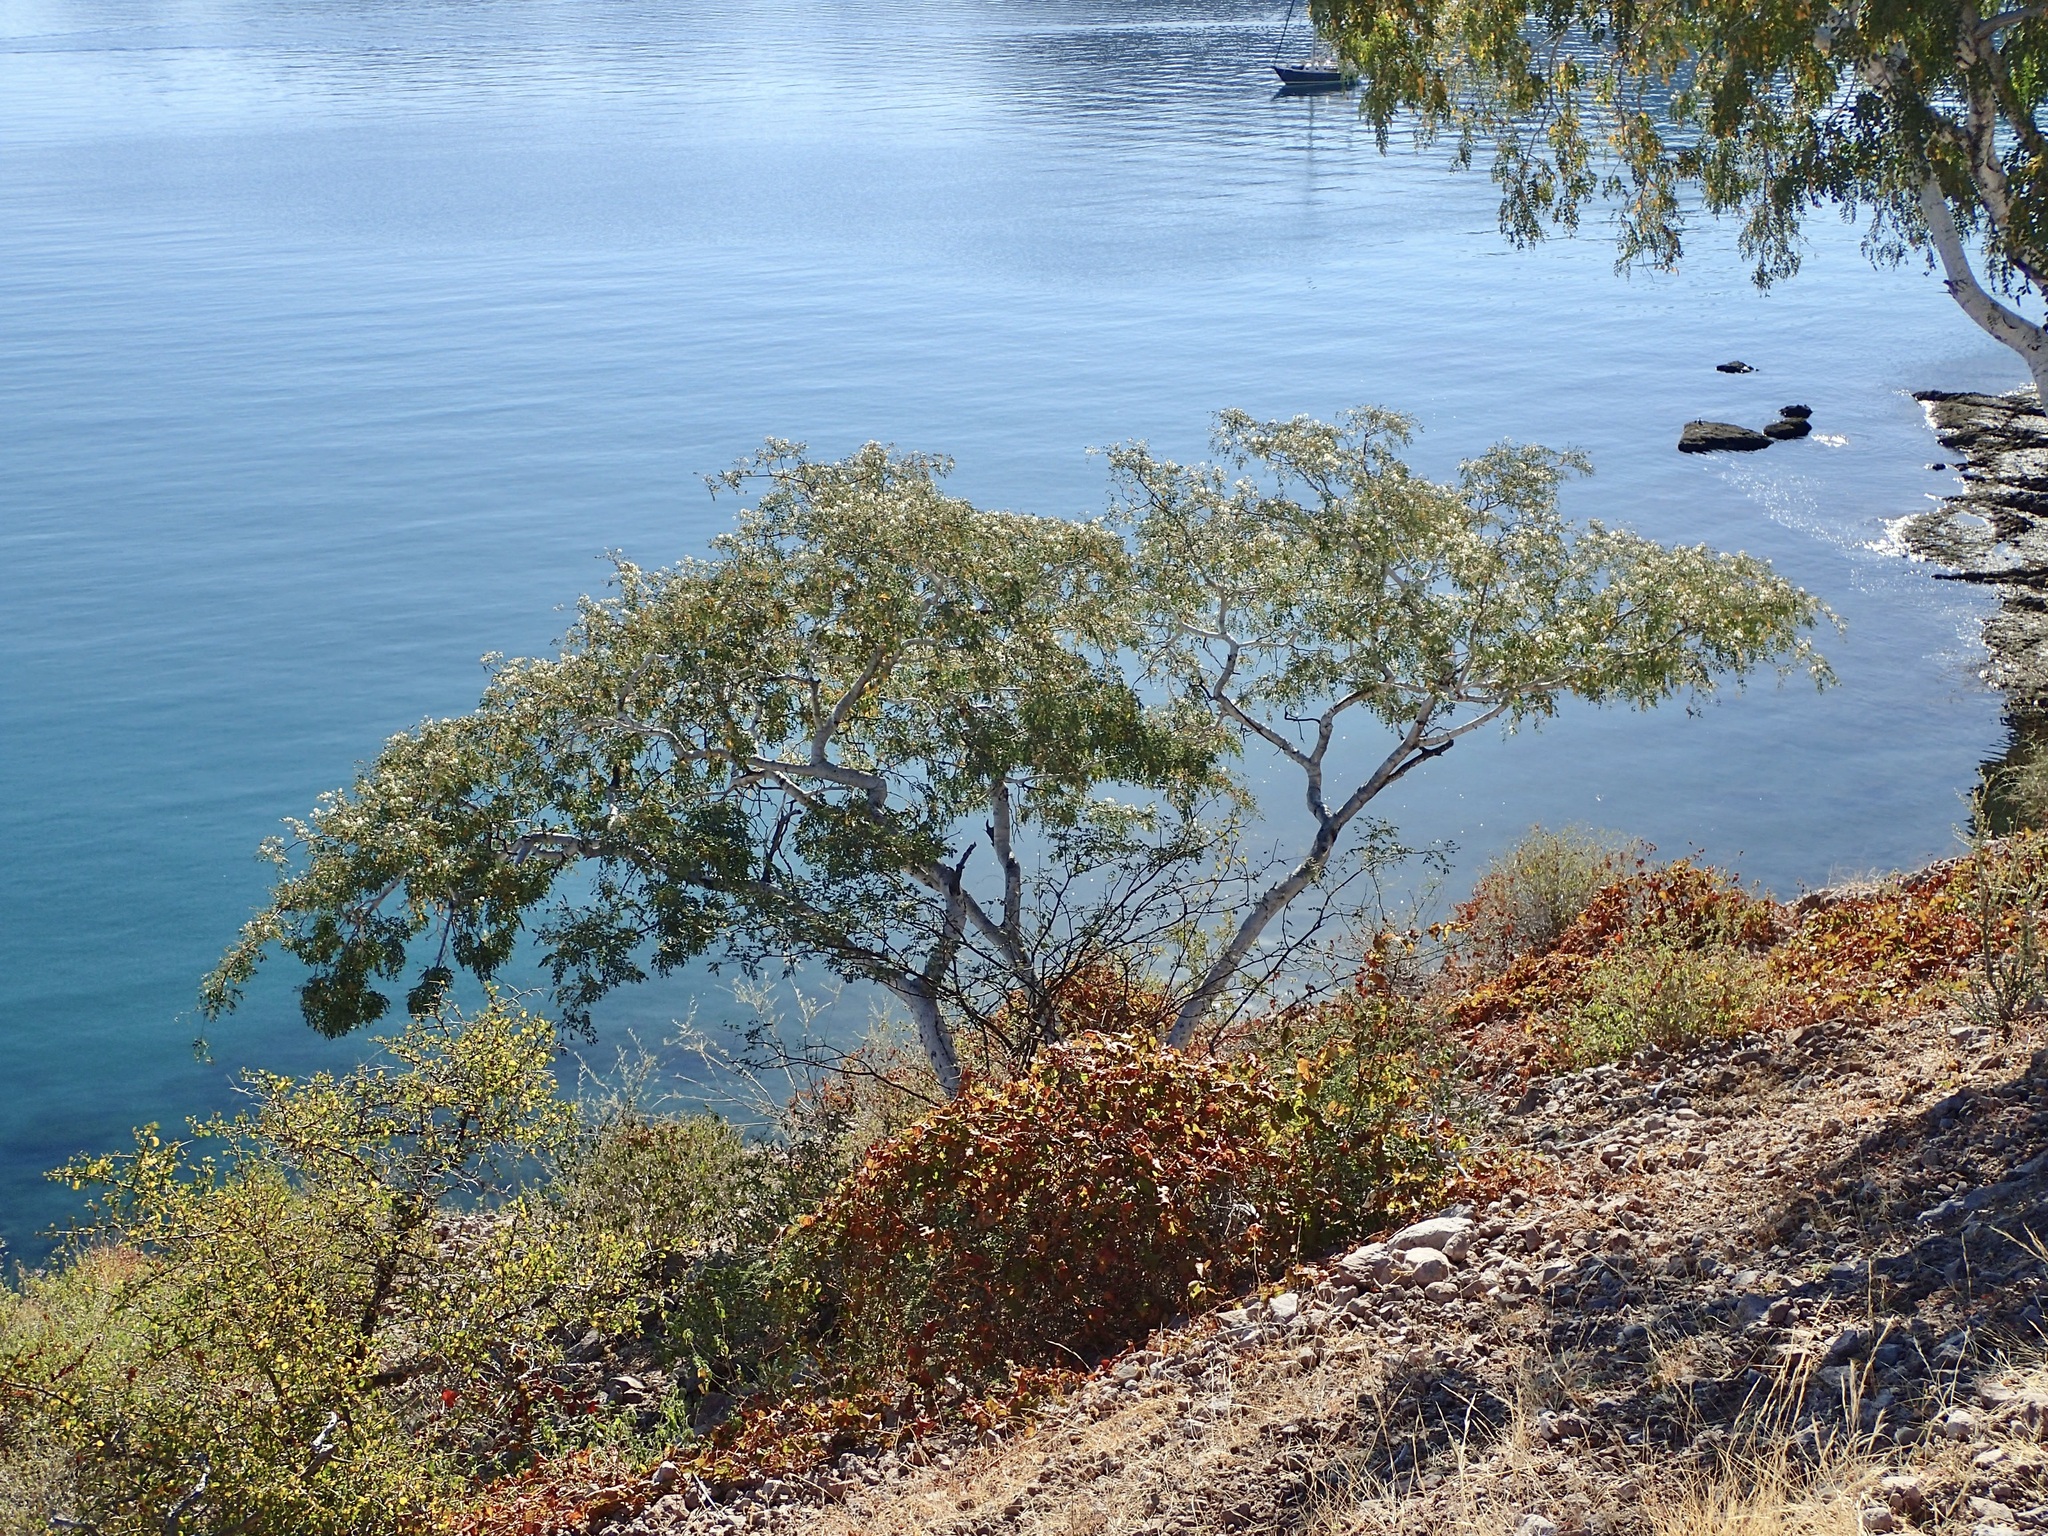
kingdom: Plantae
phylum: Tracheophyta
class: Magnoliopsida
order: Fabales
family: Fabaceae
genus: Lysiloma
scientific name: Lysiloma candidum
